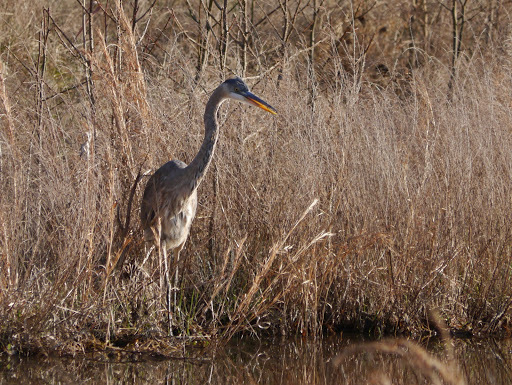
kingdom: Animalia
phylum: Chordata
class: Aves
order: Pelecaniformes
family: Ardeidae
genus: Ardea
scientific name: Ardea herodias
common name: Great blue heron
